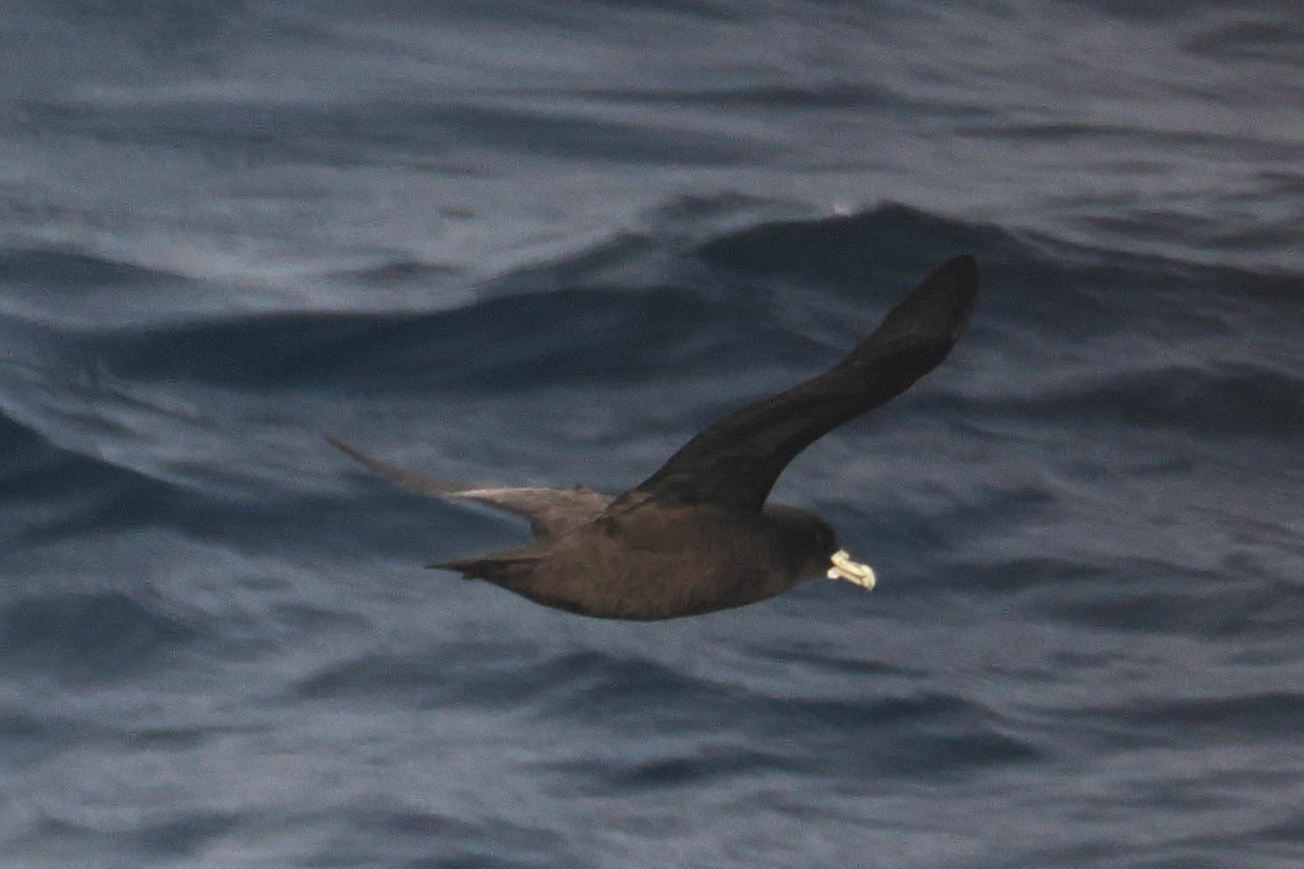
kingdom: Animalia
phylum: Chordata
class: Aves
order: Procellariiformes
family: Procellariidae
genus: Procellaria
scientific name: Procellaria aequinoctialis
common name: White-chinned petrel
